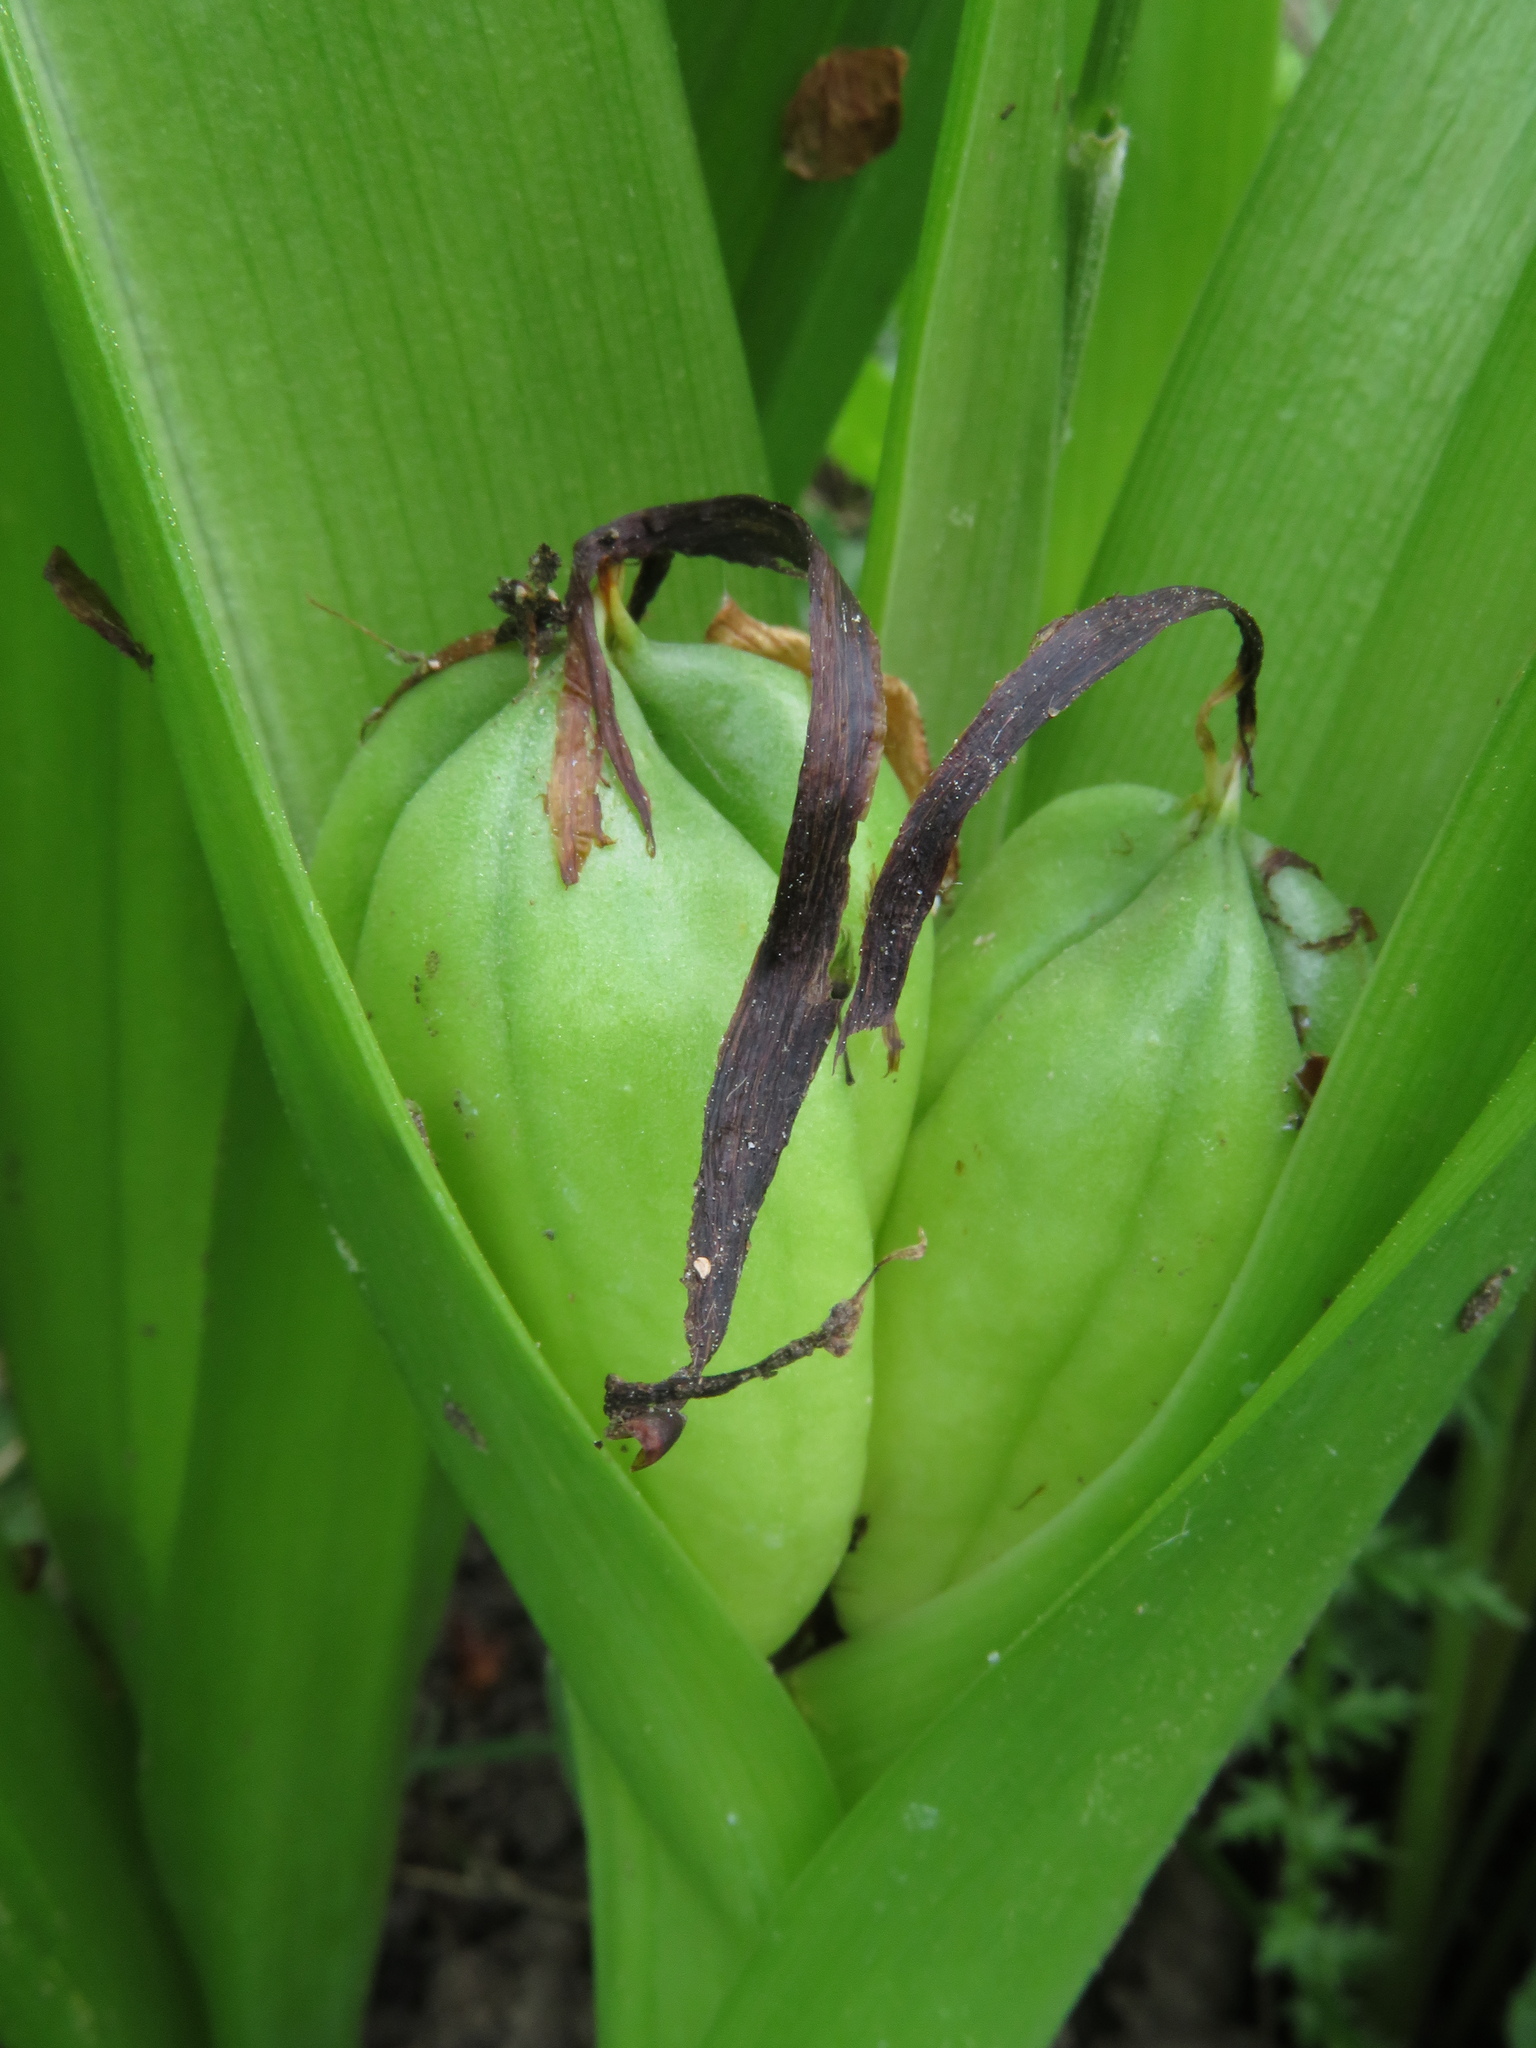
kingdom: Plantae
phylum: Tracheophyta
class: Liliopsida
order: Liliales
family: Colchicaceae
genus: Colchicum
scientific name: Colchicum autumnale
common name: Autumn crocus
